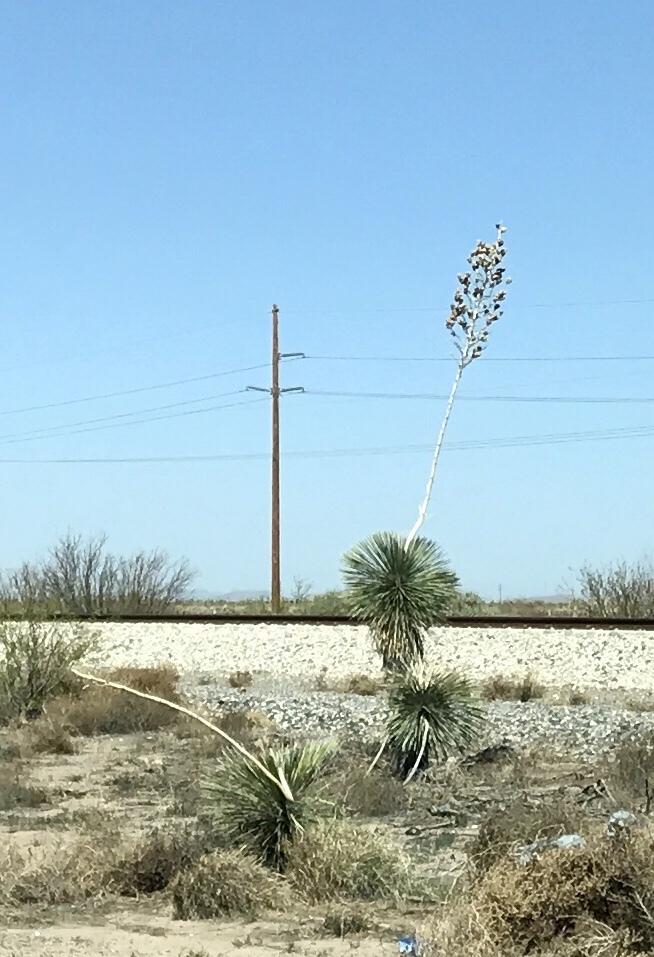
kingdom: Plantae
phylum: Tracheophyta
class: Liliopsida
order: Asparagales
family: Asparagaceae
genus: Yucca
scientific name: Yucca elata
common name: Palmella
